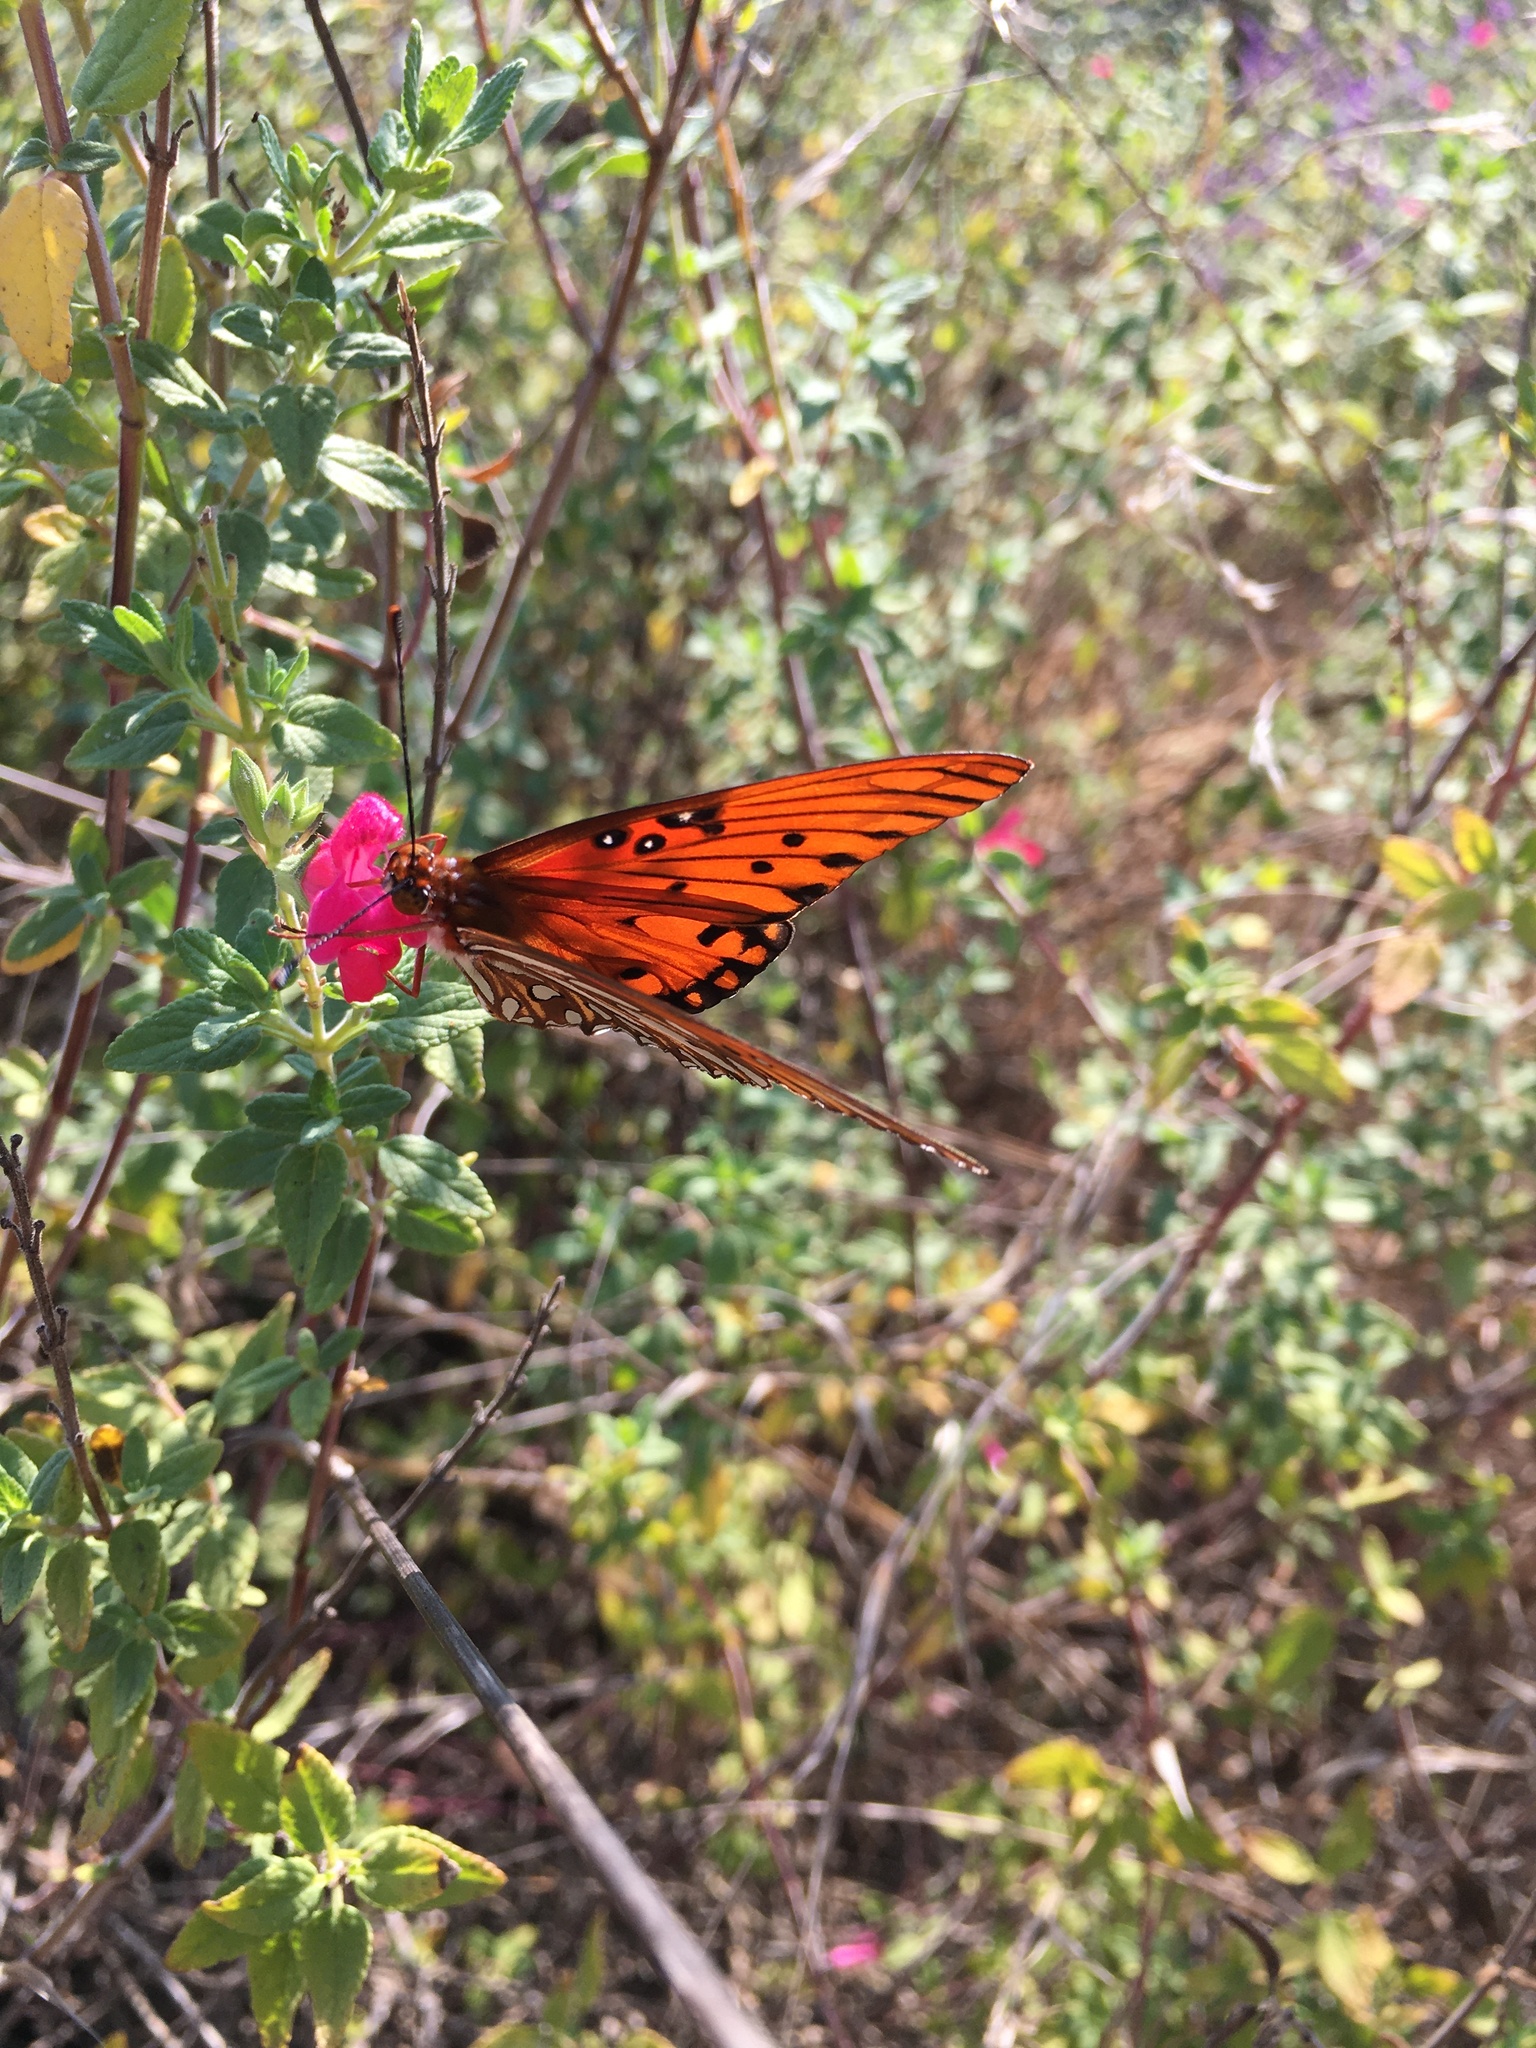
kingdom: Animalia
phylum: Arthropoda
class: Insecta
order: Lepidoptera
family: Nymphalidae
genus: Dione
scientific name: Dione vanillae
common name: Gulf fritillary
